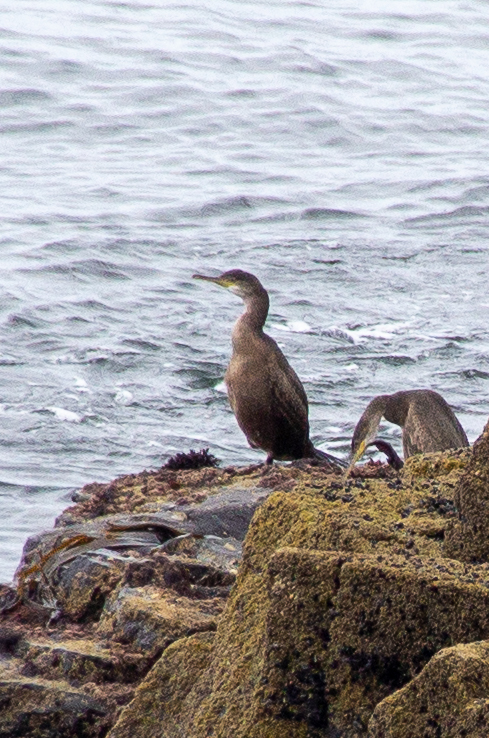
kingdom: Animalia
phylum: Chordata
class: Aves
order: Suliformes
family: Phalacrocoracidae
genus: Phalacrocorax
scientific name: Phalacrocorax aristotelis
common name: European shag
